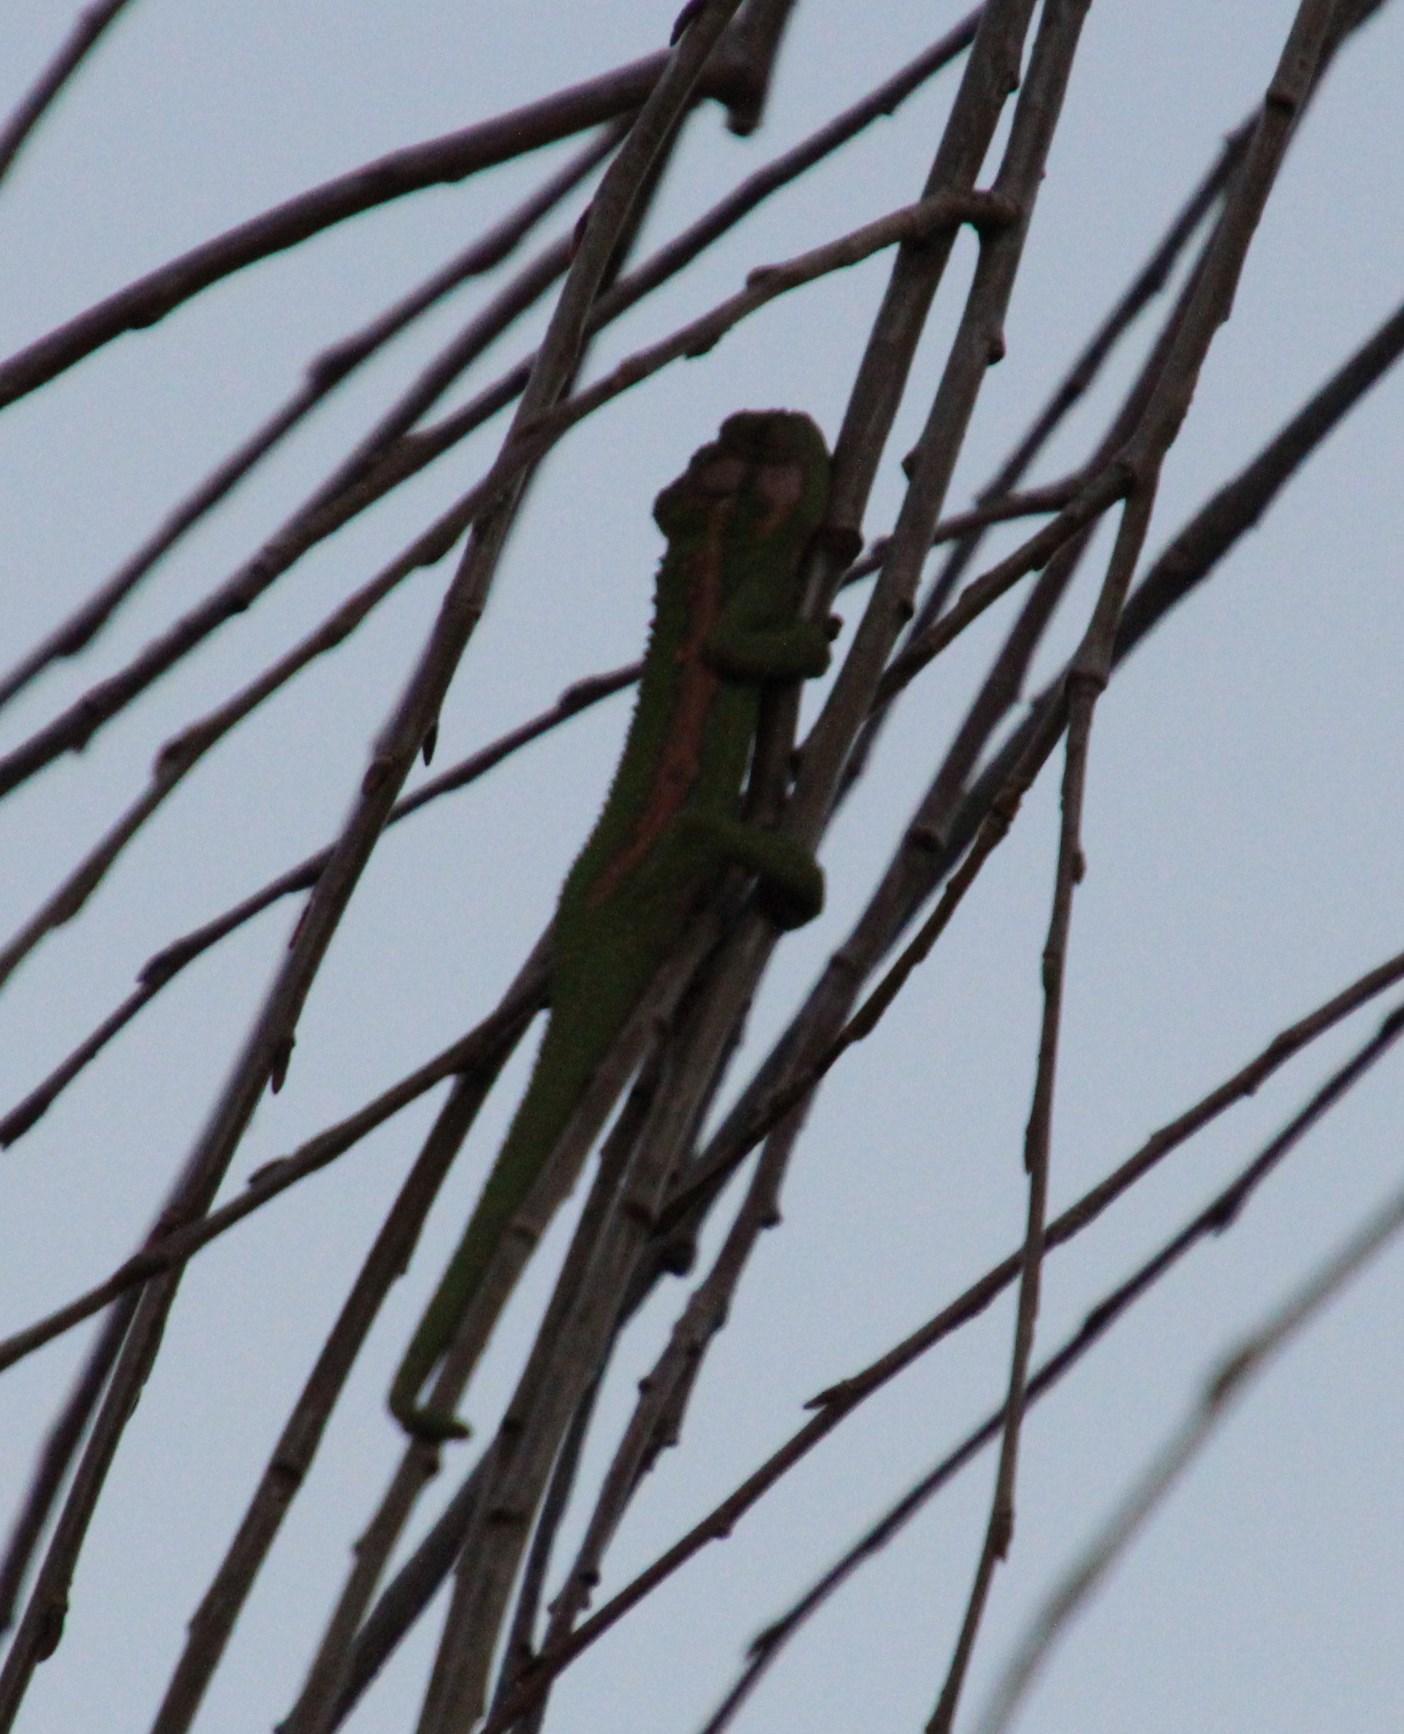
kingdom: Animalia
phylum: Chordata
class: Squamata
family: Chamaeleonidae
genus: Bradypodion
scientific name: Bradypodion pumilum
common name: Cape dwarf chameleon
